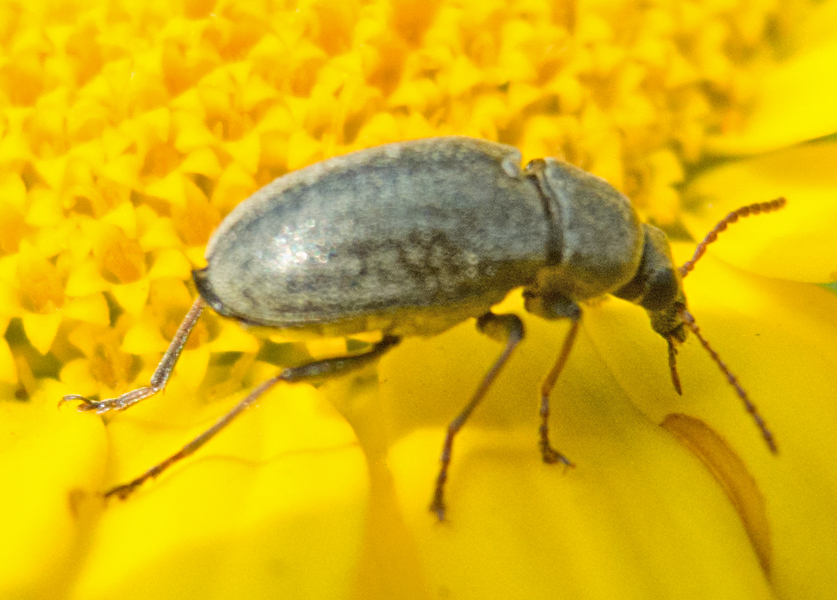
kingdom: Animalia
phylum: Arthropoda
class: Insecta
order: Coleoptera
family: Mycteridae
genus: Mycterus
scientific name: Mycterus tibialis
